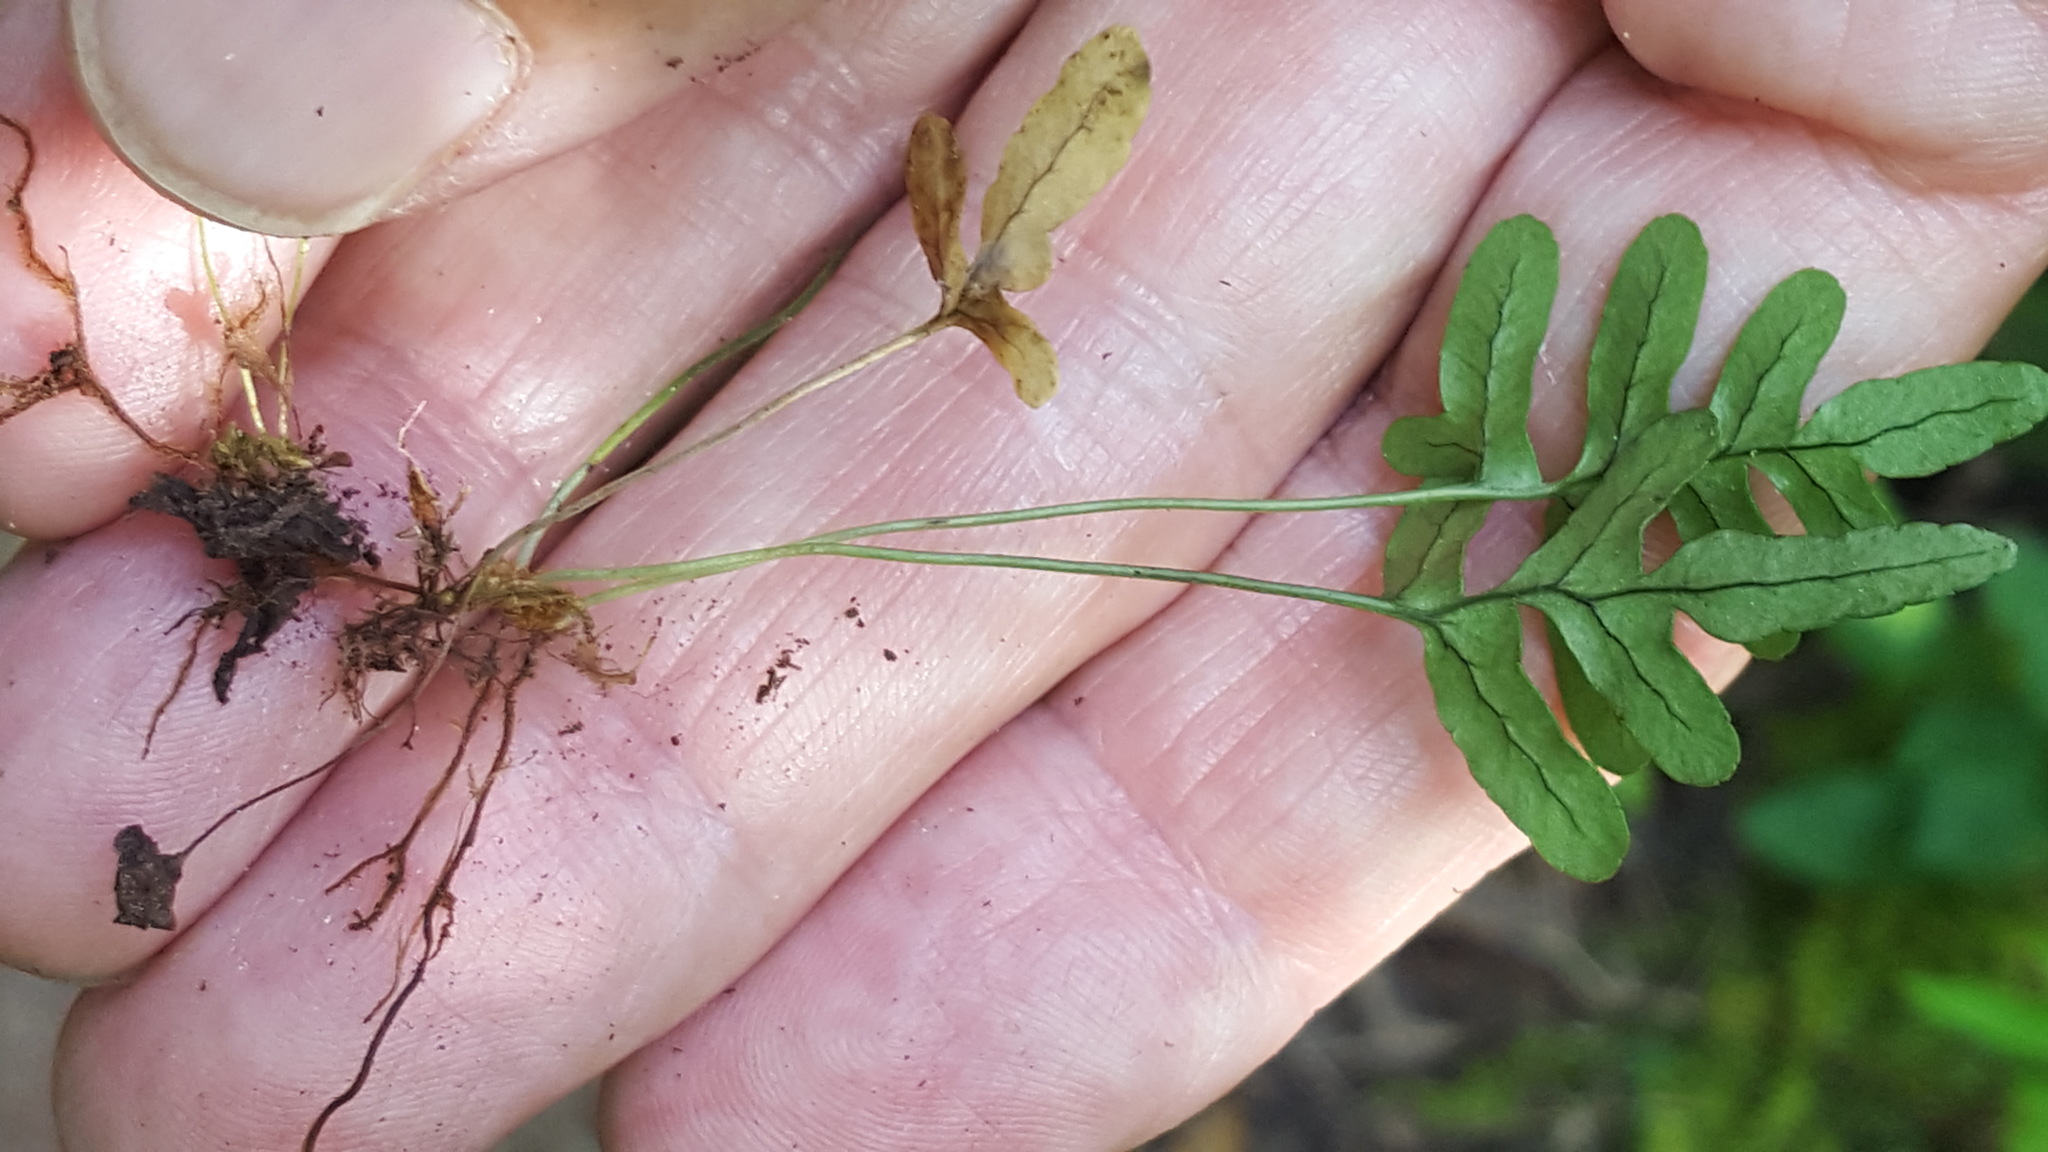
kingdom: Plantae
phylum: Tracheophyta
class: Polypodiopsida
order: Polypodiales
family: Polypodiaceae
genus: Polypodium
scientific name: Polypodium virginianum
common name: American wall fern
